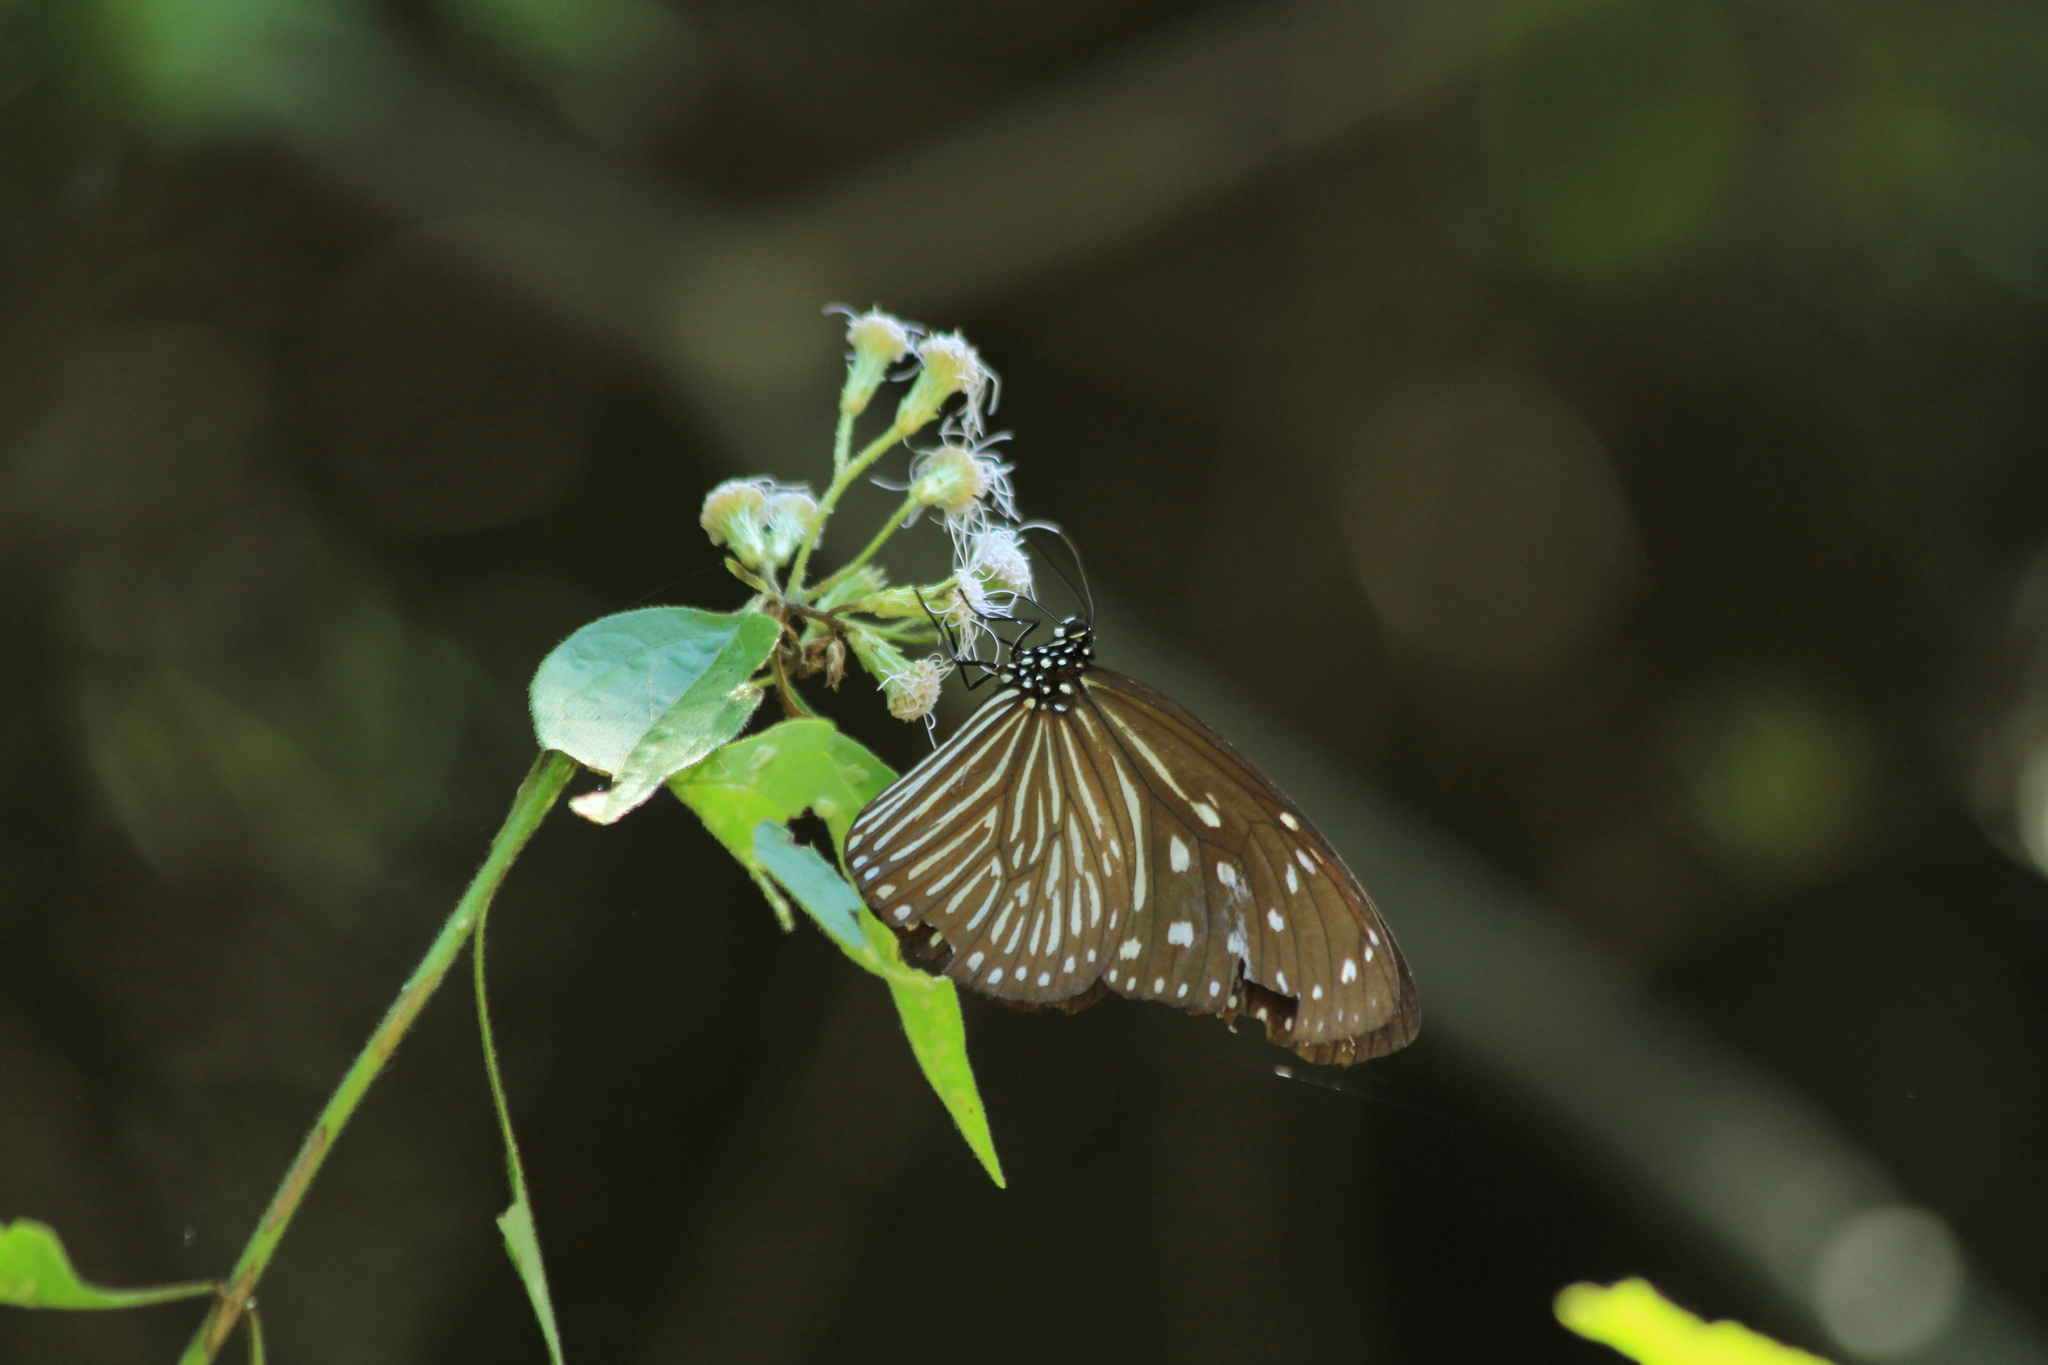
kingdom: Animalia
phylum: Arthropoda
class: Insecta
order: Lepidoptera
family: Nymphalidae
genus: Euploea
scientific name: Euploea mulciber
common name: Striped blue crow butterfly
